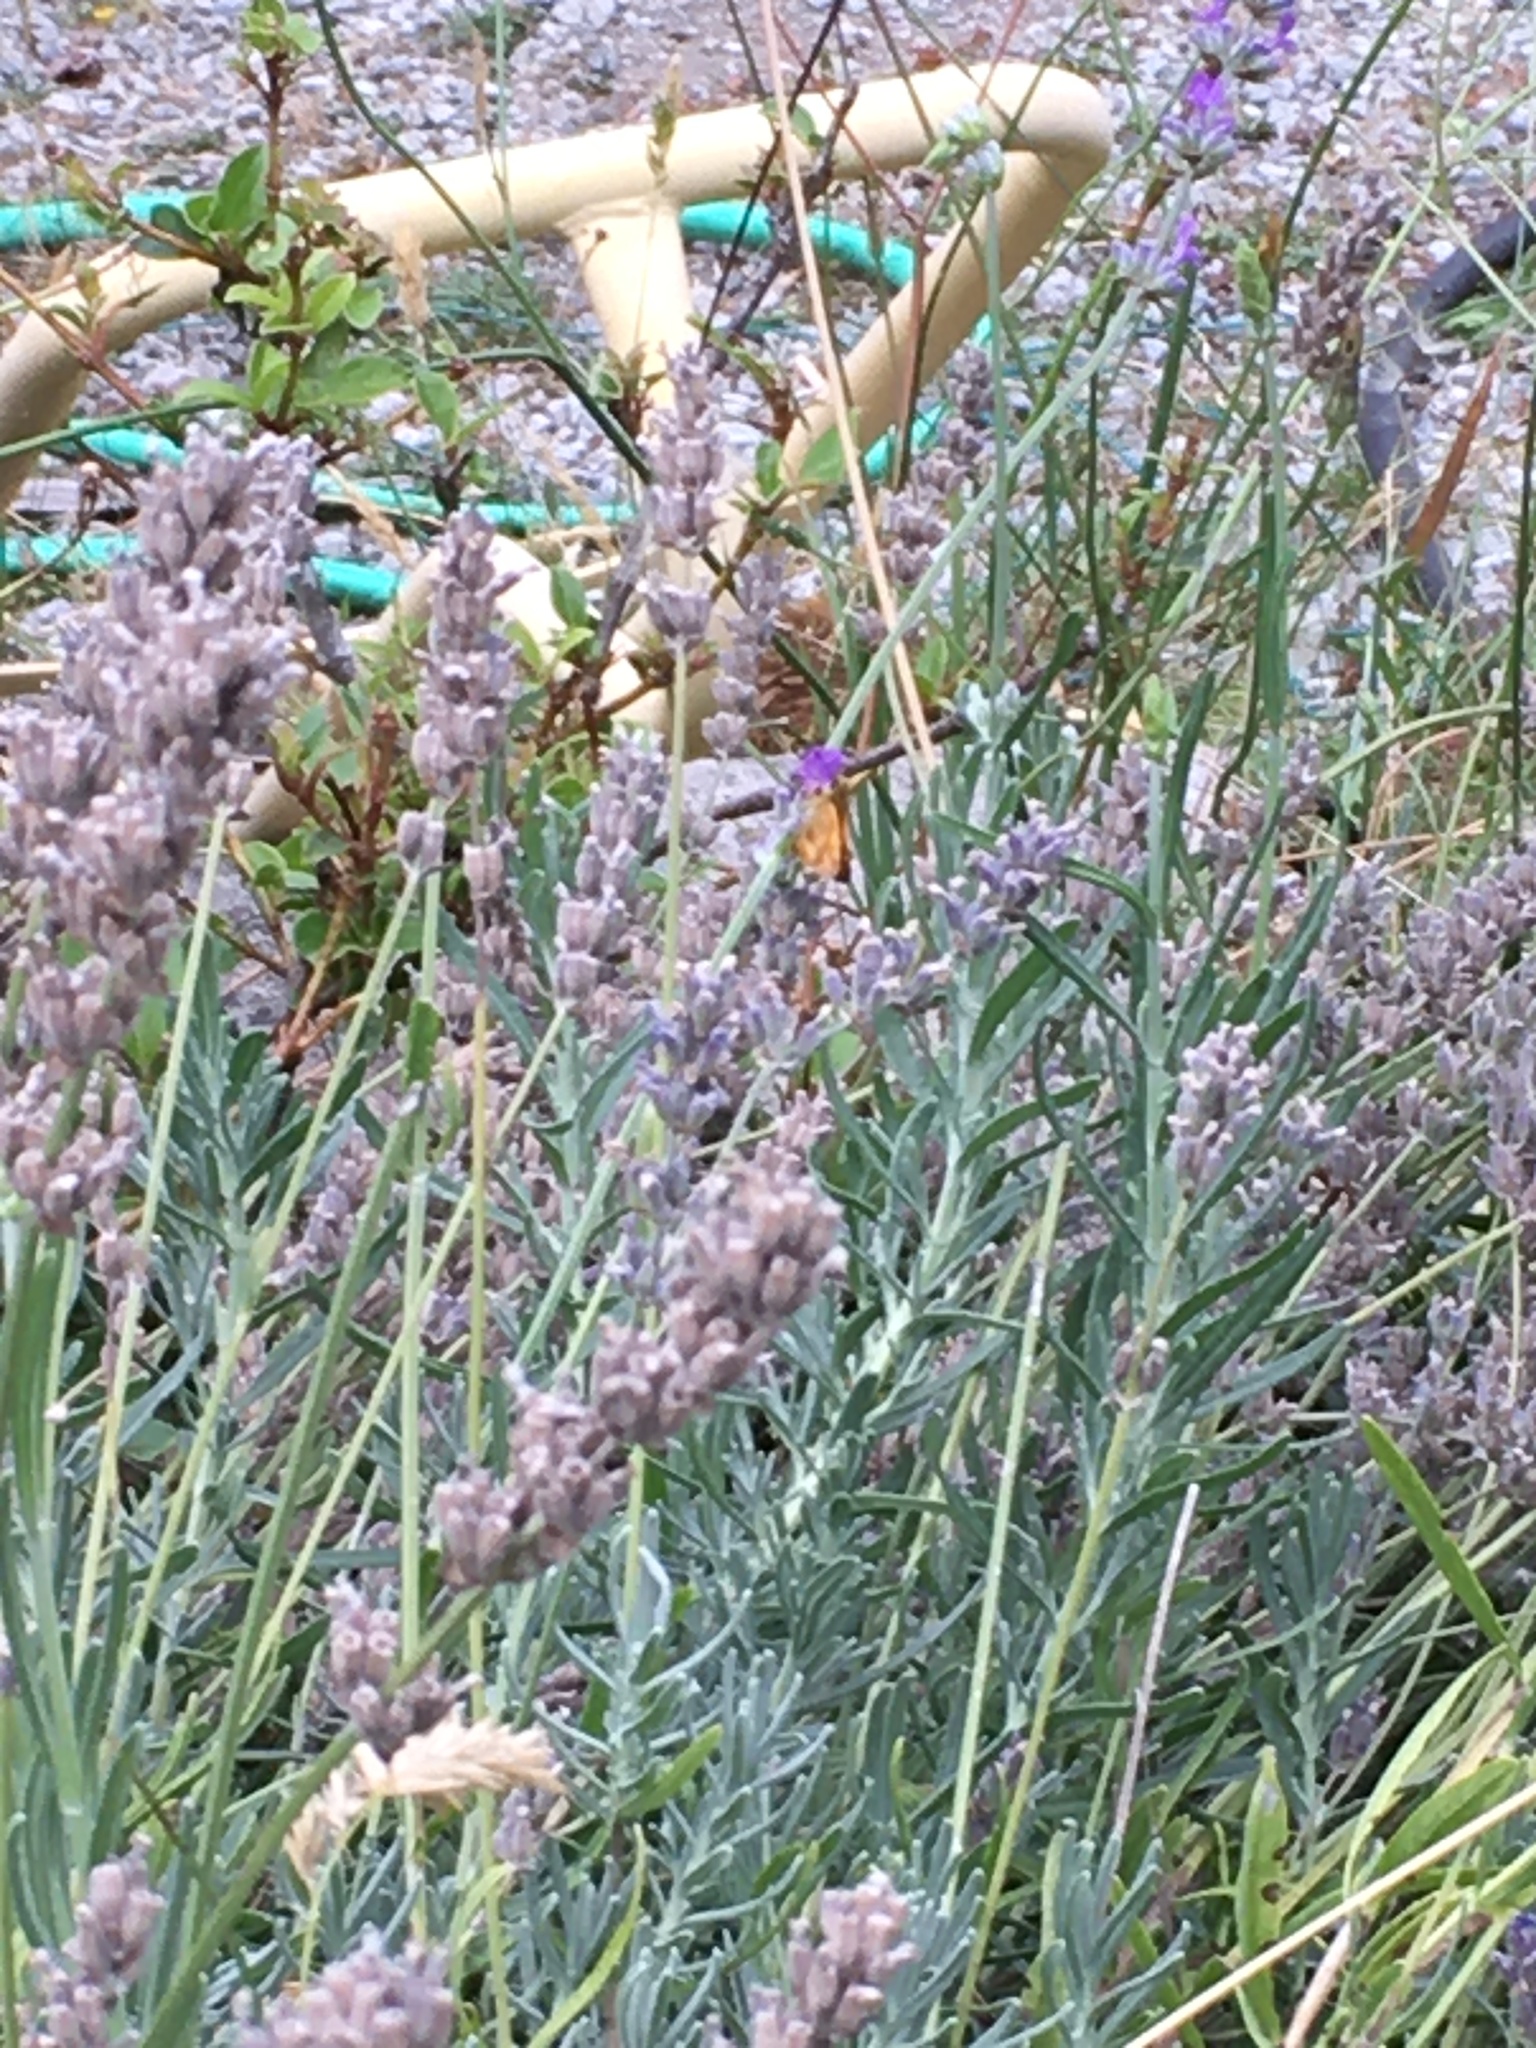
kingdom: Animalia
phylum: Arthropoda
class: Insecta
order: Lepidoptera
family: Hesperiidae
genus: Ochlodes
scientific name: Ochlodes sylvanoides
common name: Woodland skipper
